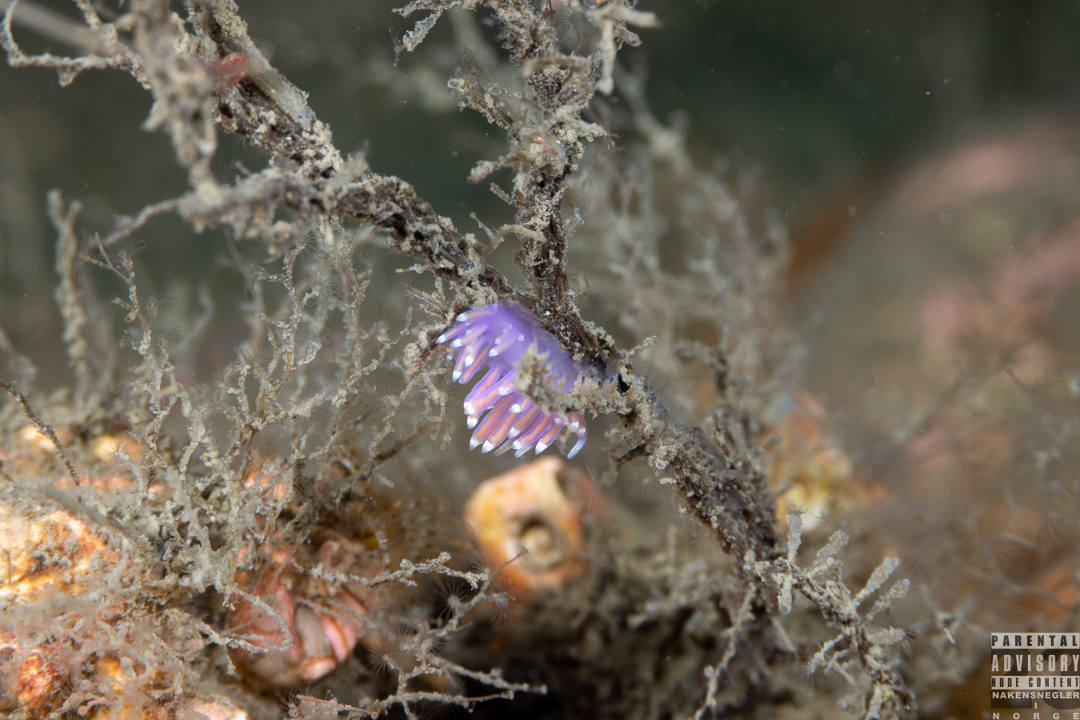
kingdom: Animalia
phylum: Mollusca
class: Gastropoda
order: Nudibranchia
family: Flabellinidae
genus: Edmundsella
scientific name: Edmundsella pedata
